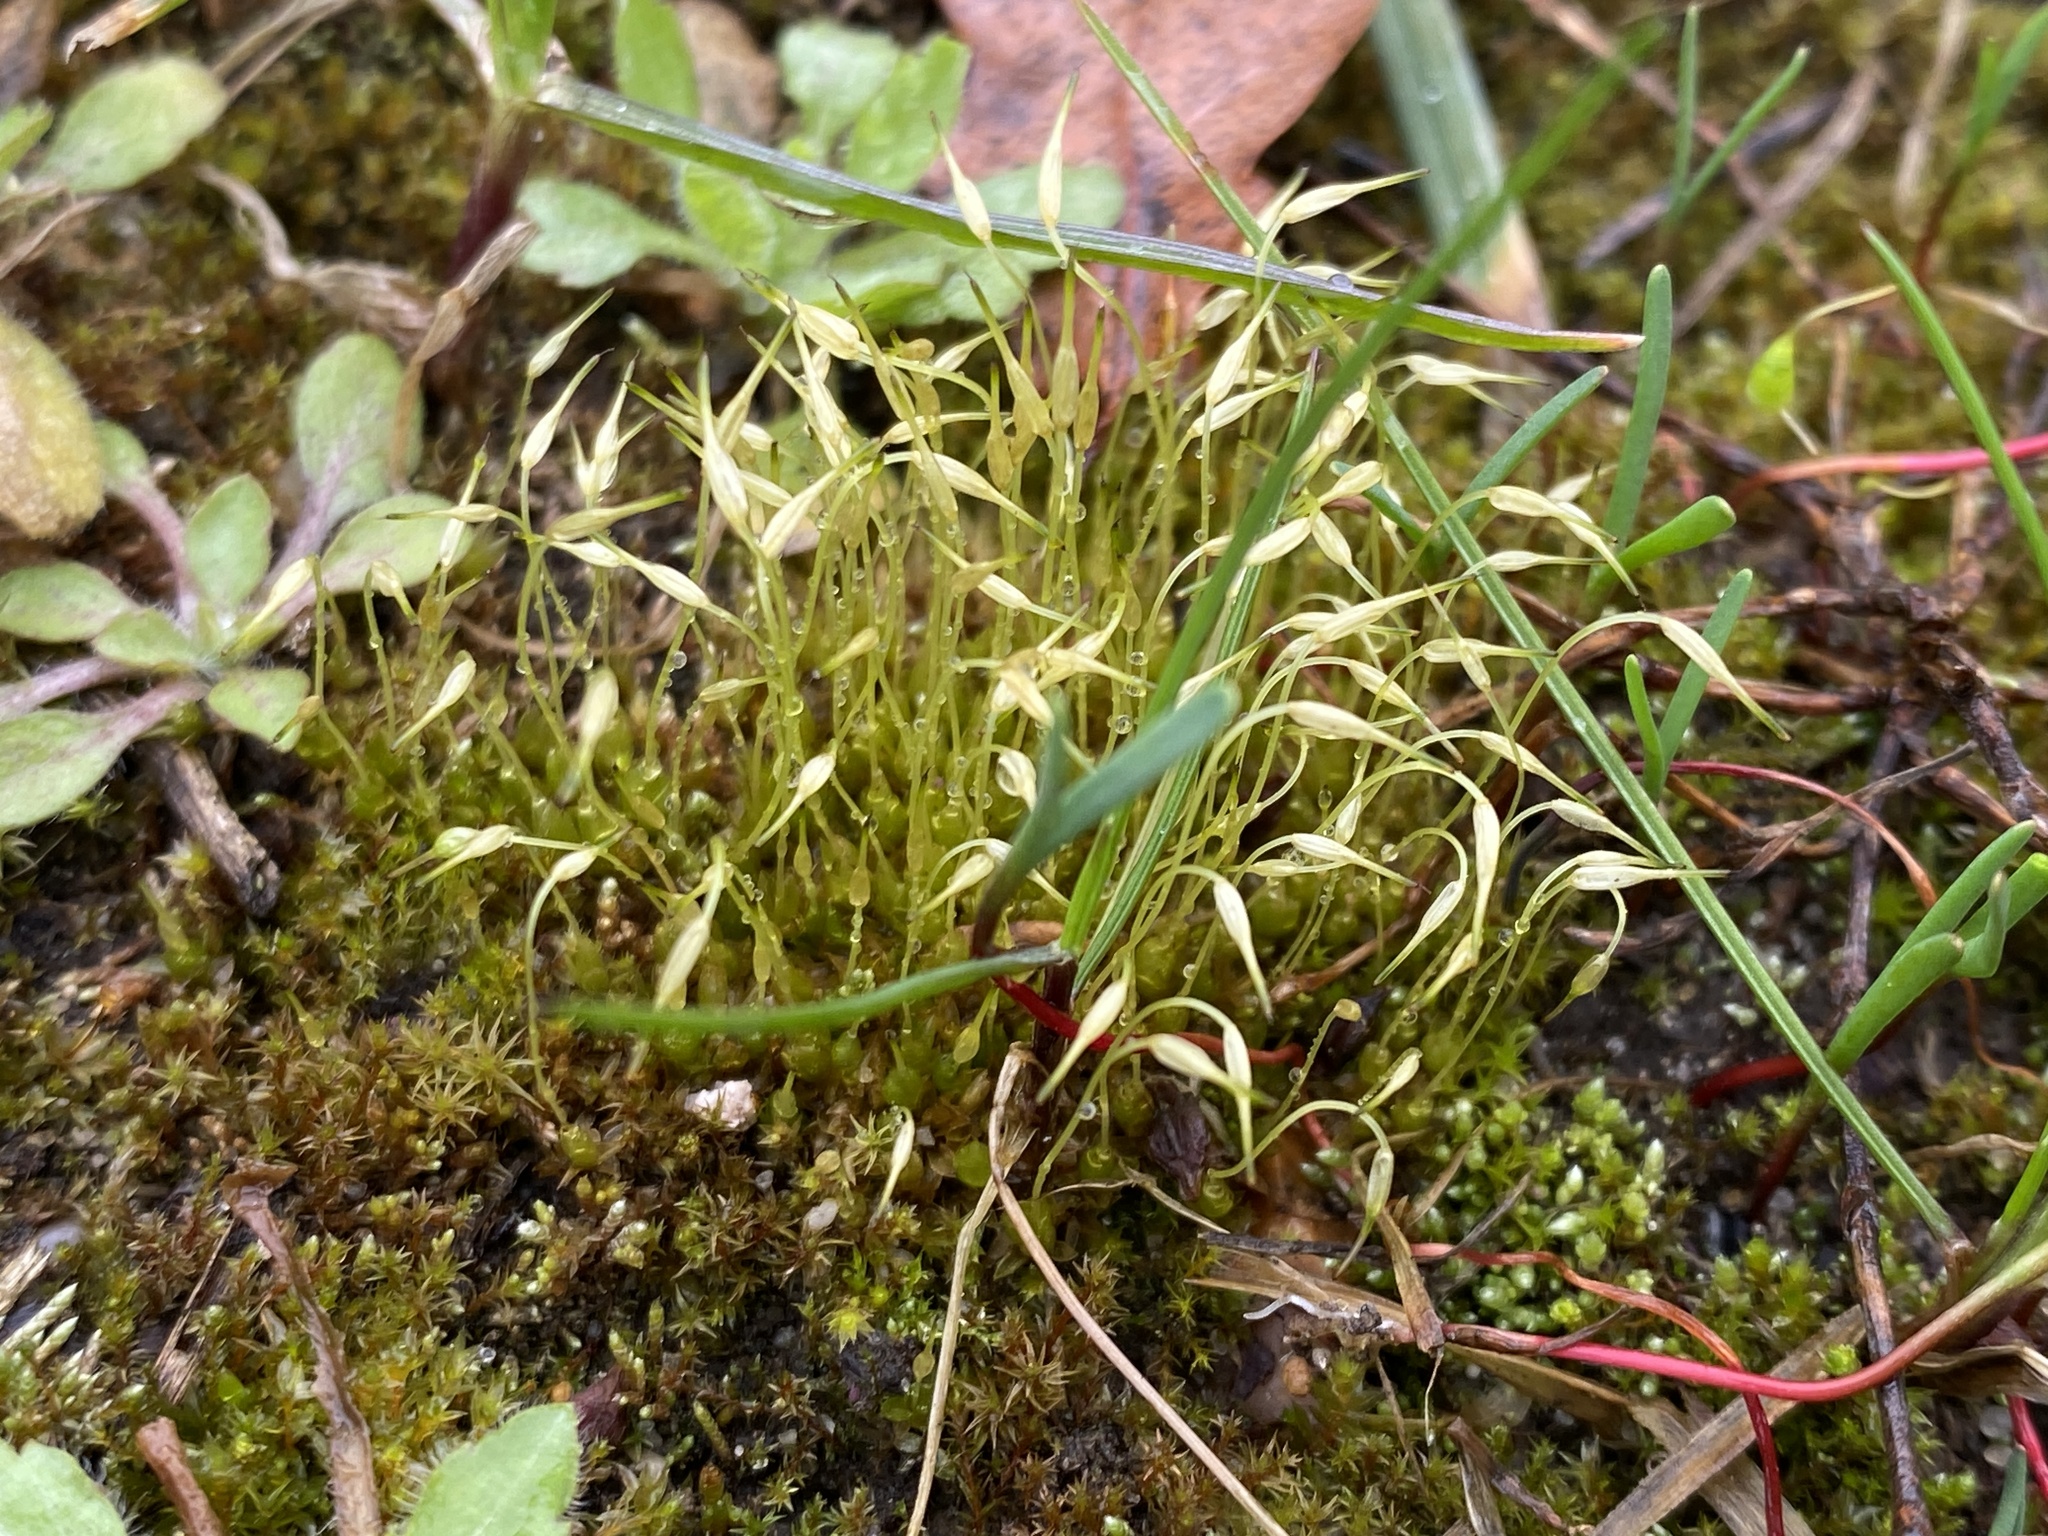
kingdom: Plantae
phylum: Bryophyta
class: Bryopsida
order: Funariales
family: Funariaceae
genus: Funaria
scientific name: Funaria hygrometrica
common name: Common cord moss
